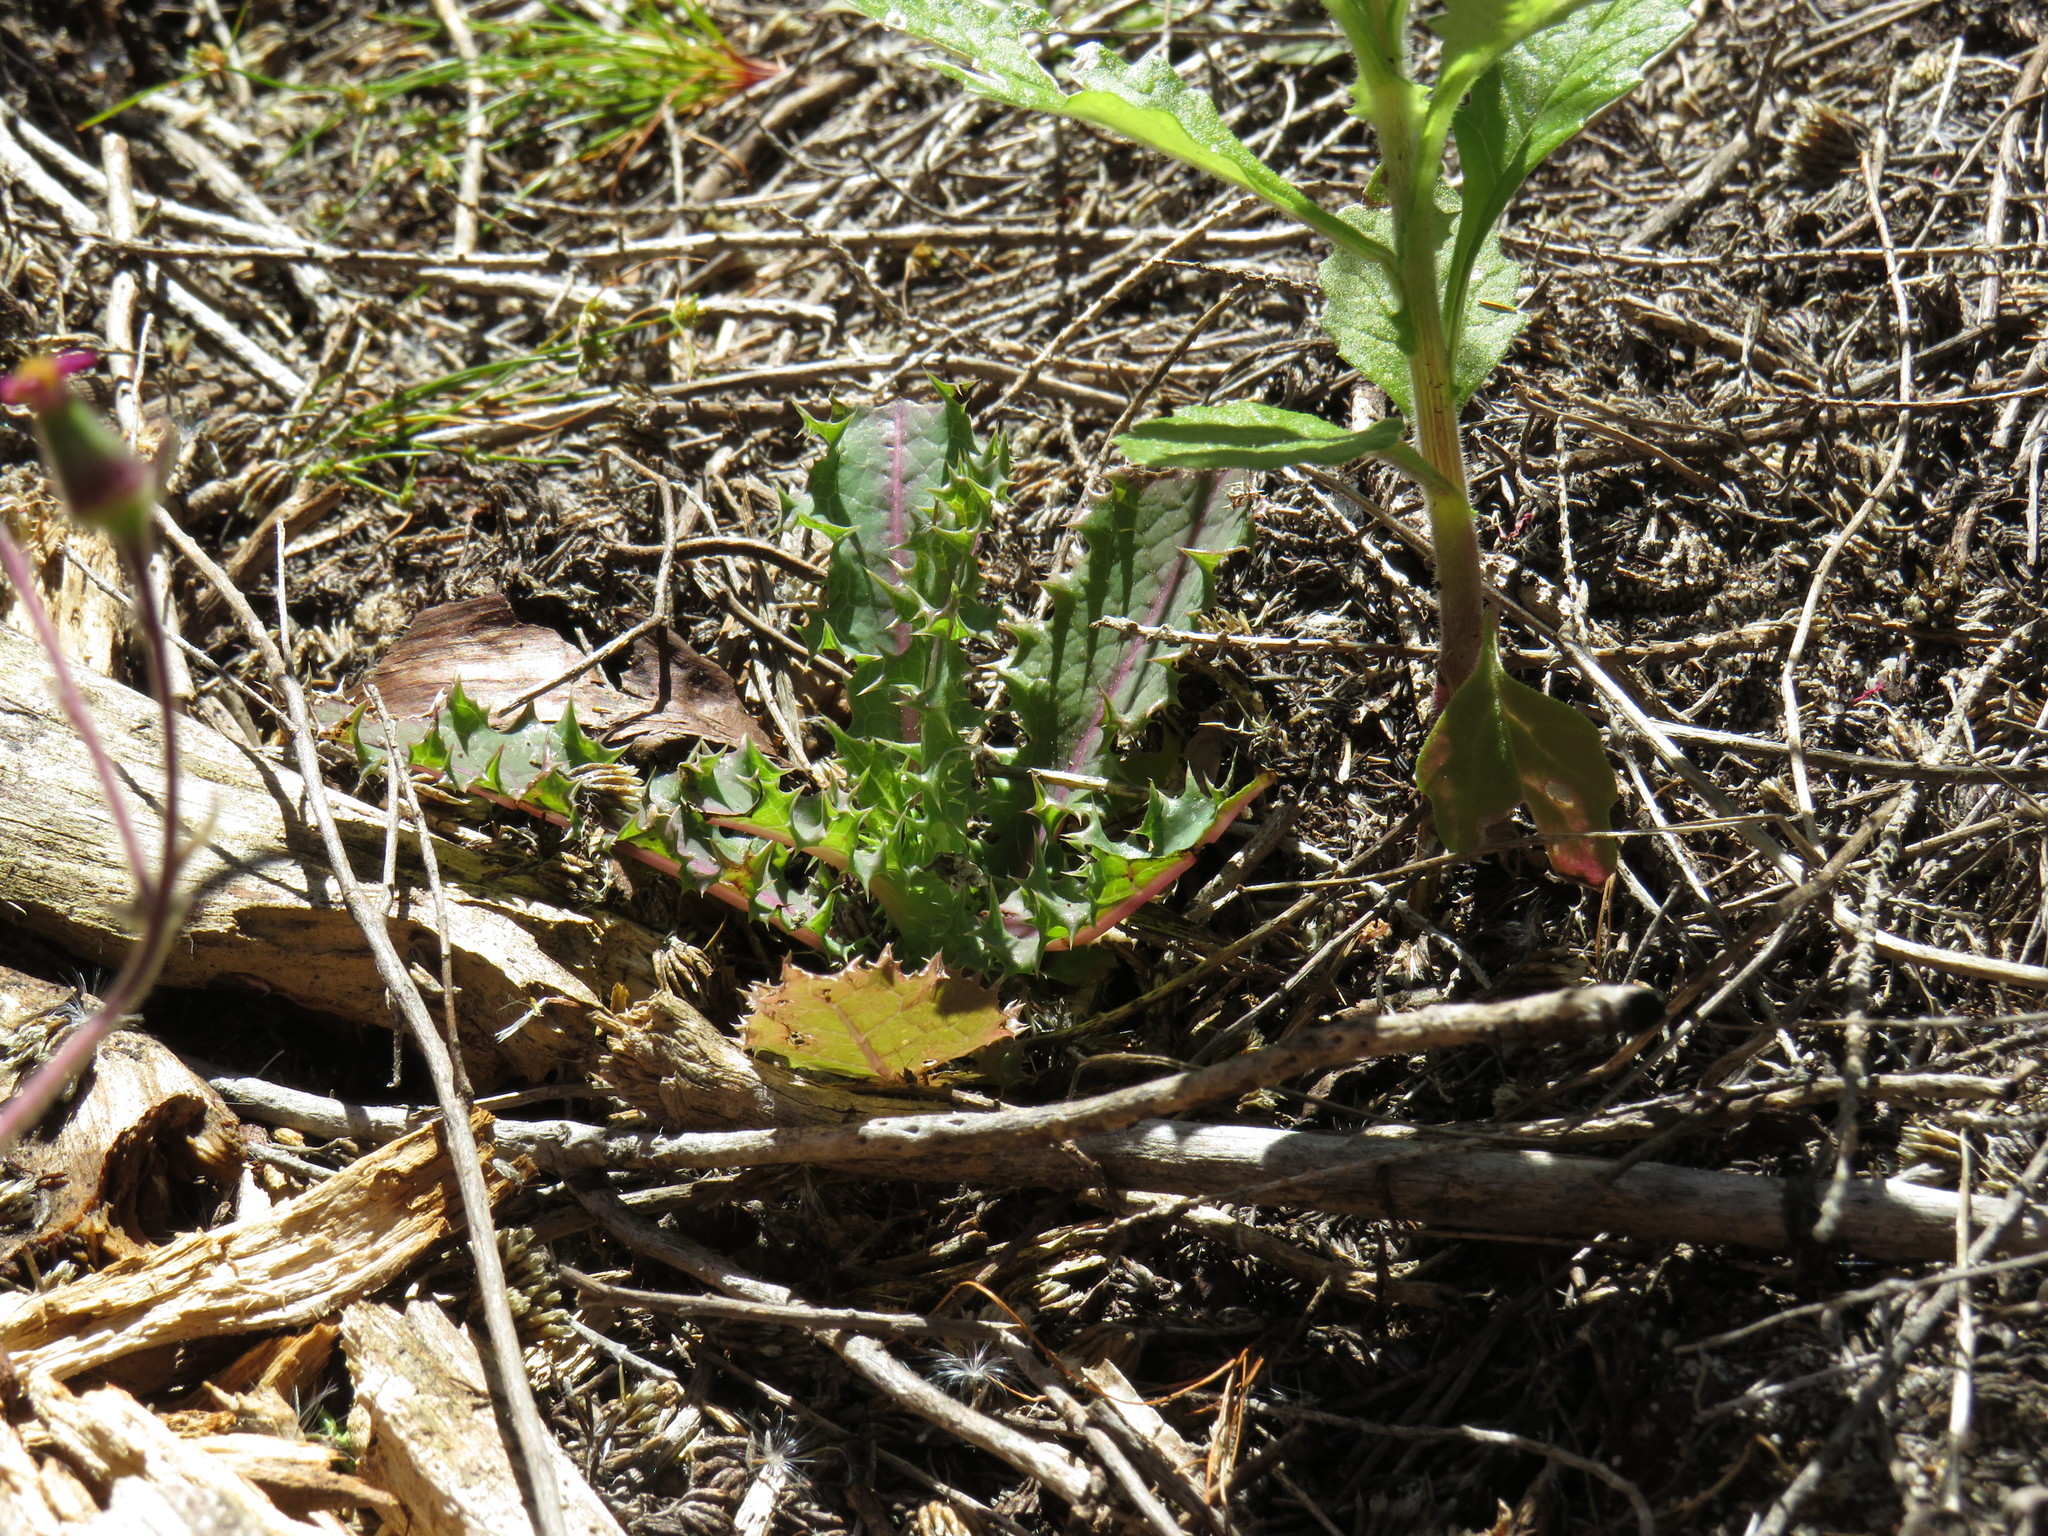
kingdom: Plantae
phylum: Tracheophyta
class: Magnoliopsida
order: Asterales
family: Asteraceae
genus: Sonchus
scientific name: Sonchus asper
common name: Prickly sow-thistle
